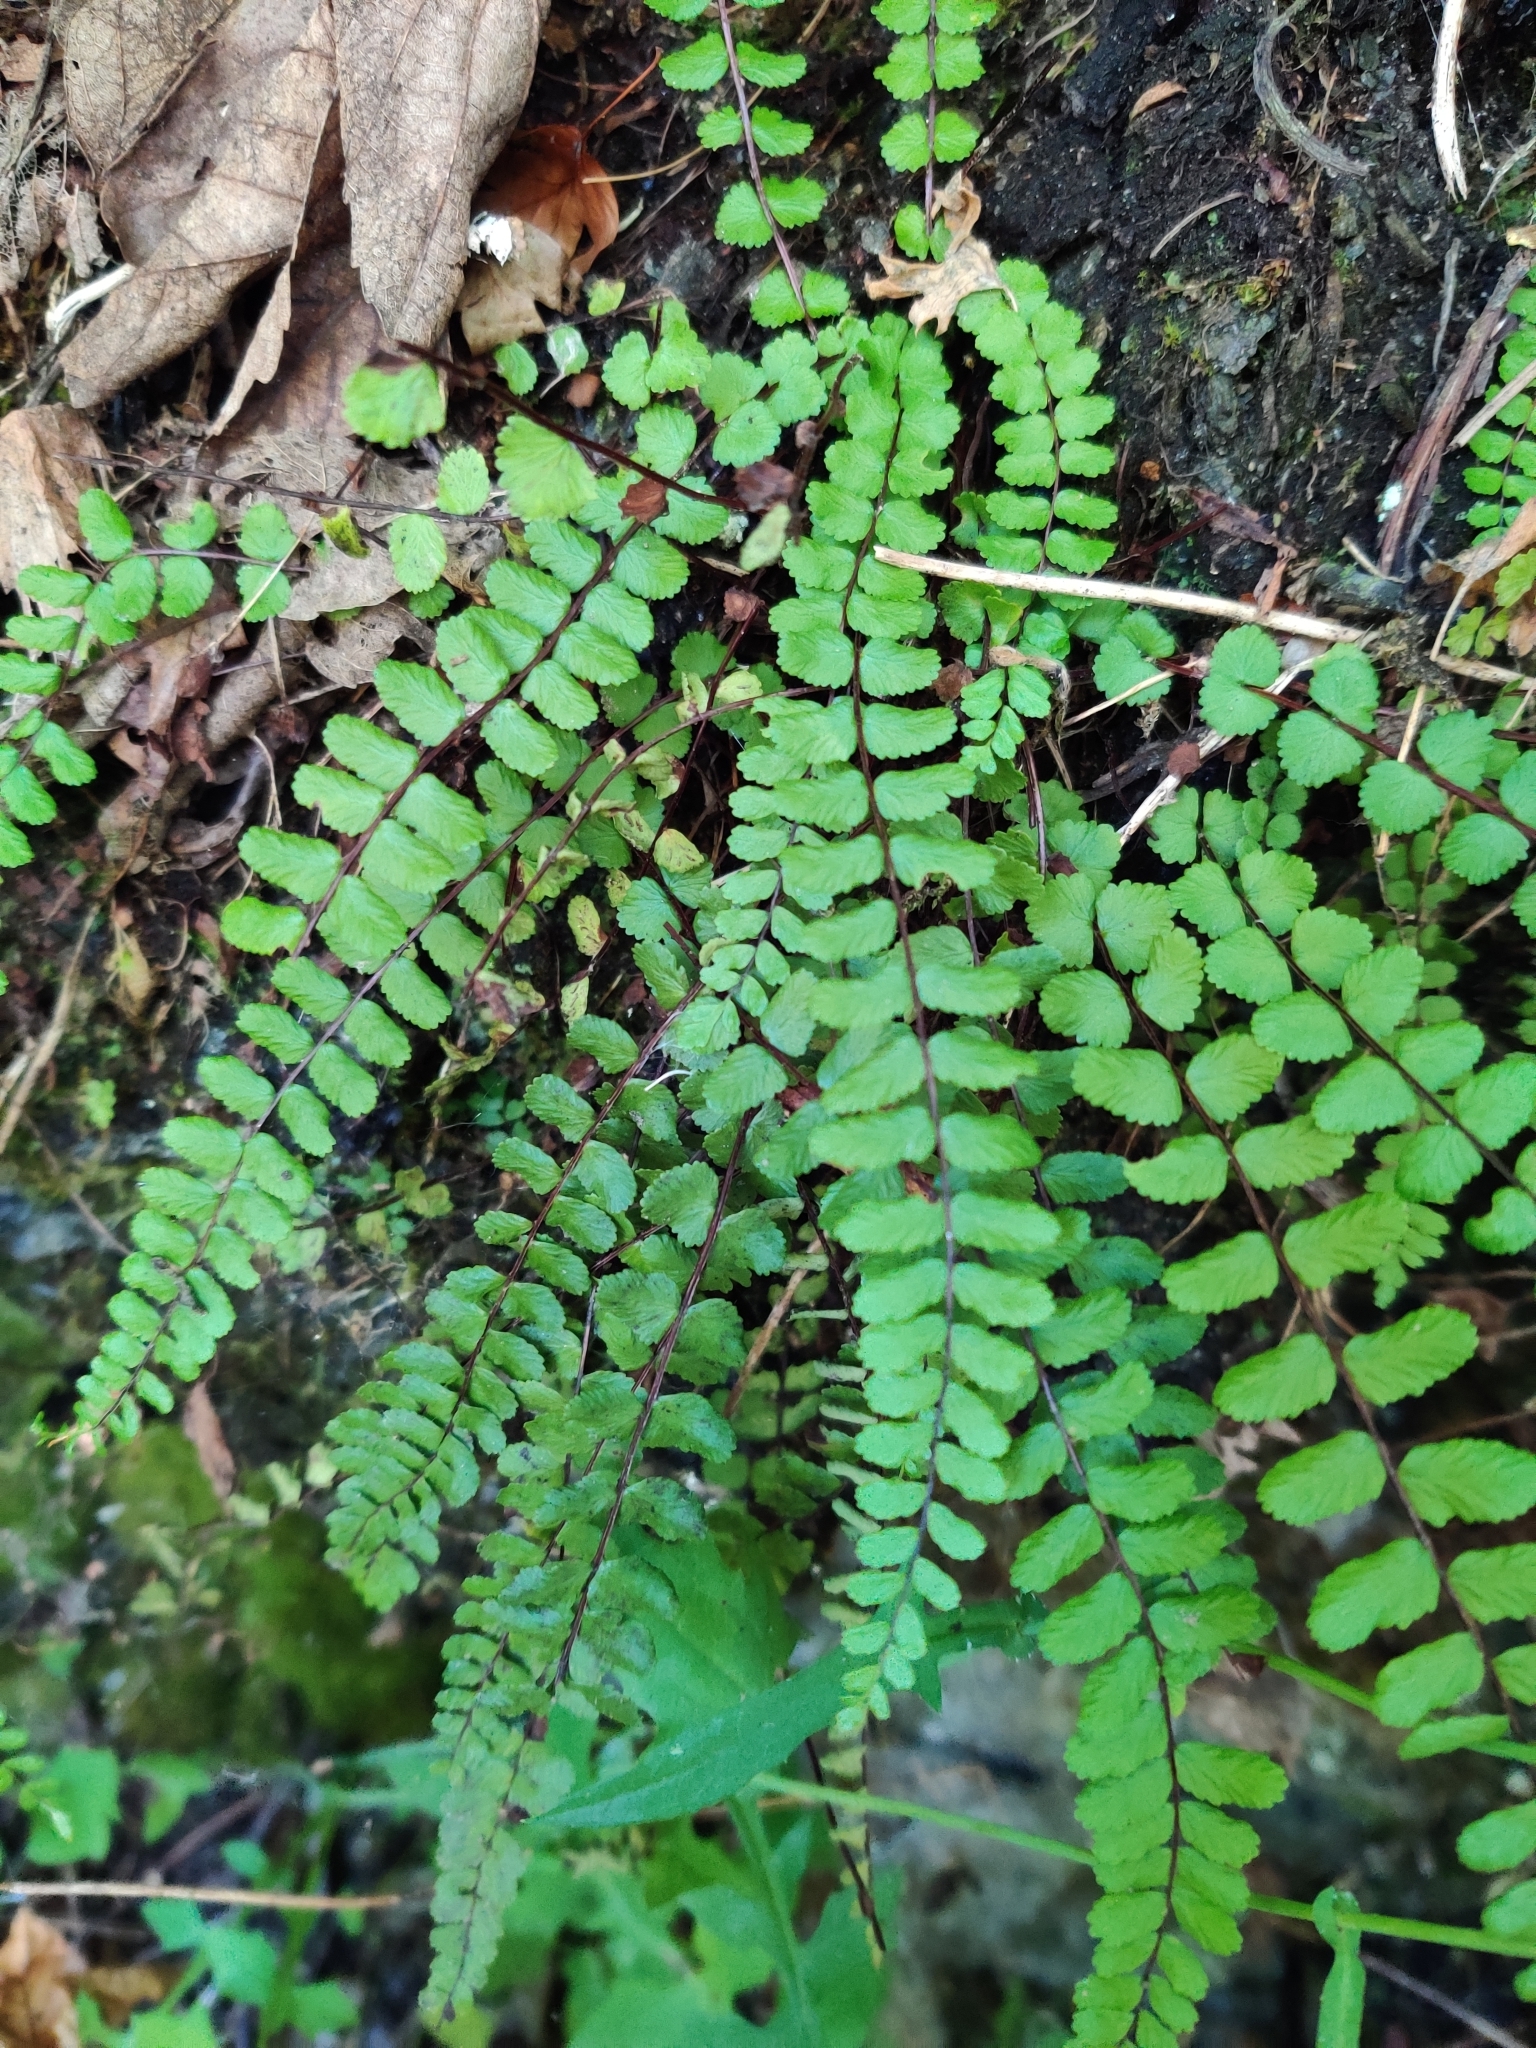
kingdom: Plantae
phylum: Tracheophyta
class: Polypodiopsida
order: Polypodiales
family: Aspleniaceae
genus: Asplenium
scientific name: Asplenium trichomanes
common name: Maidenhair spleenwort
